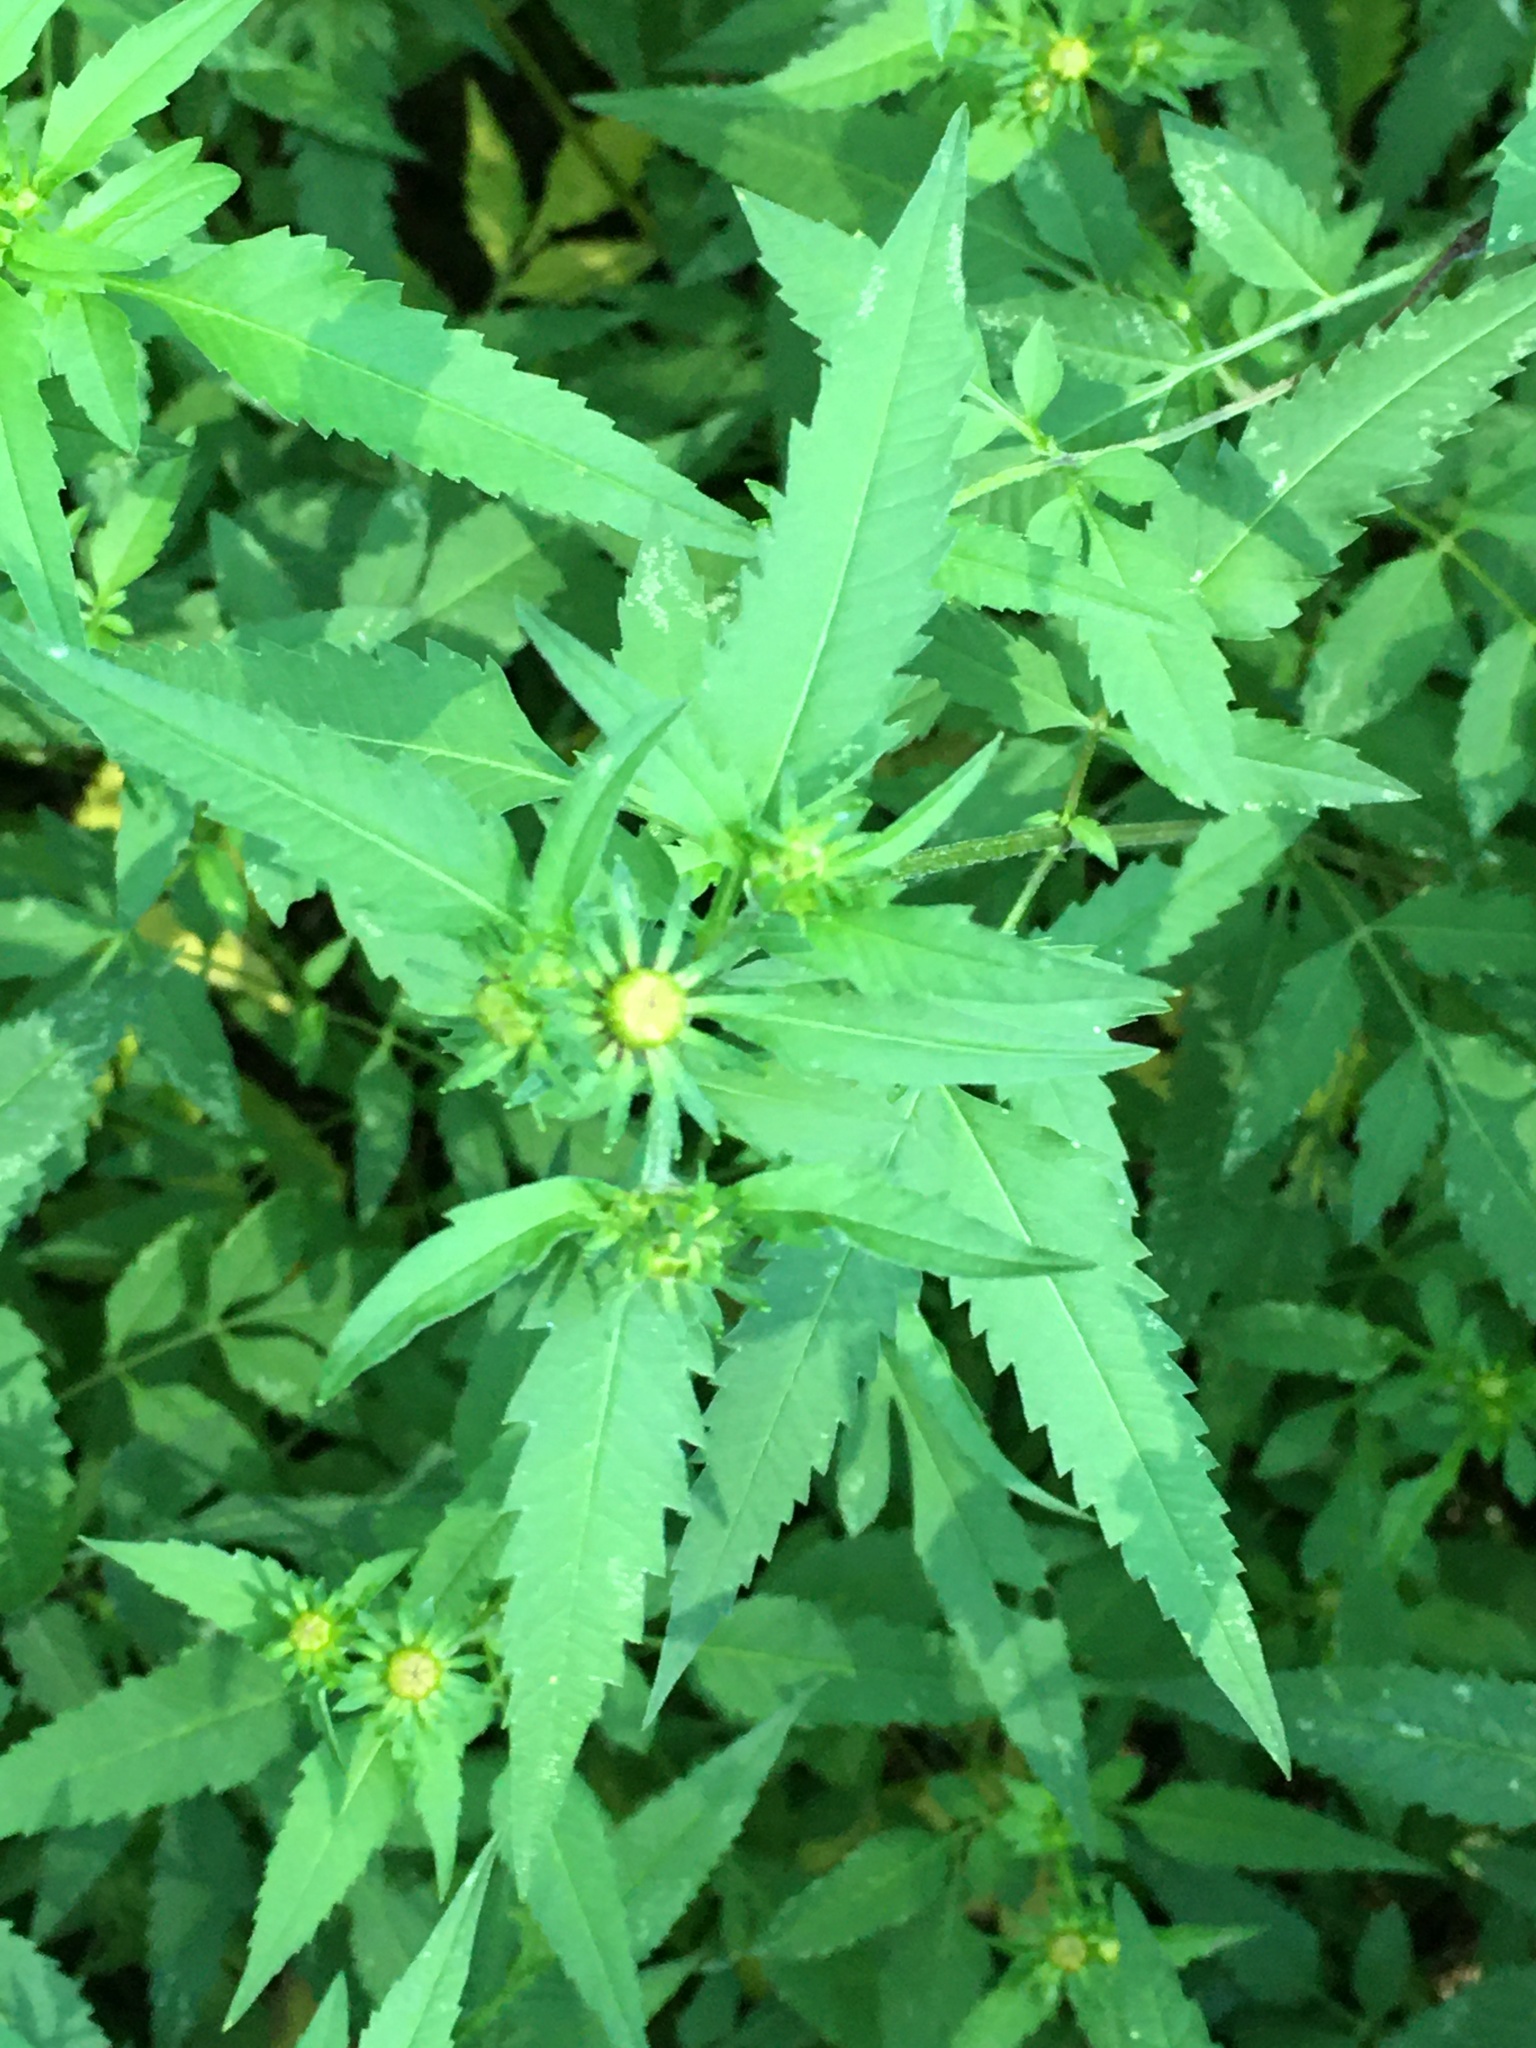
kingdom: Plantae
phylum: Tracheophyta
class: Magnoliopsida
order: Asterales
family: Asteraceae
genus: Bidens
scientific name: Bidens aristosa
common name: Western tickseed
